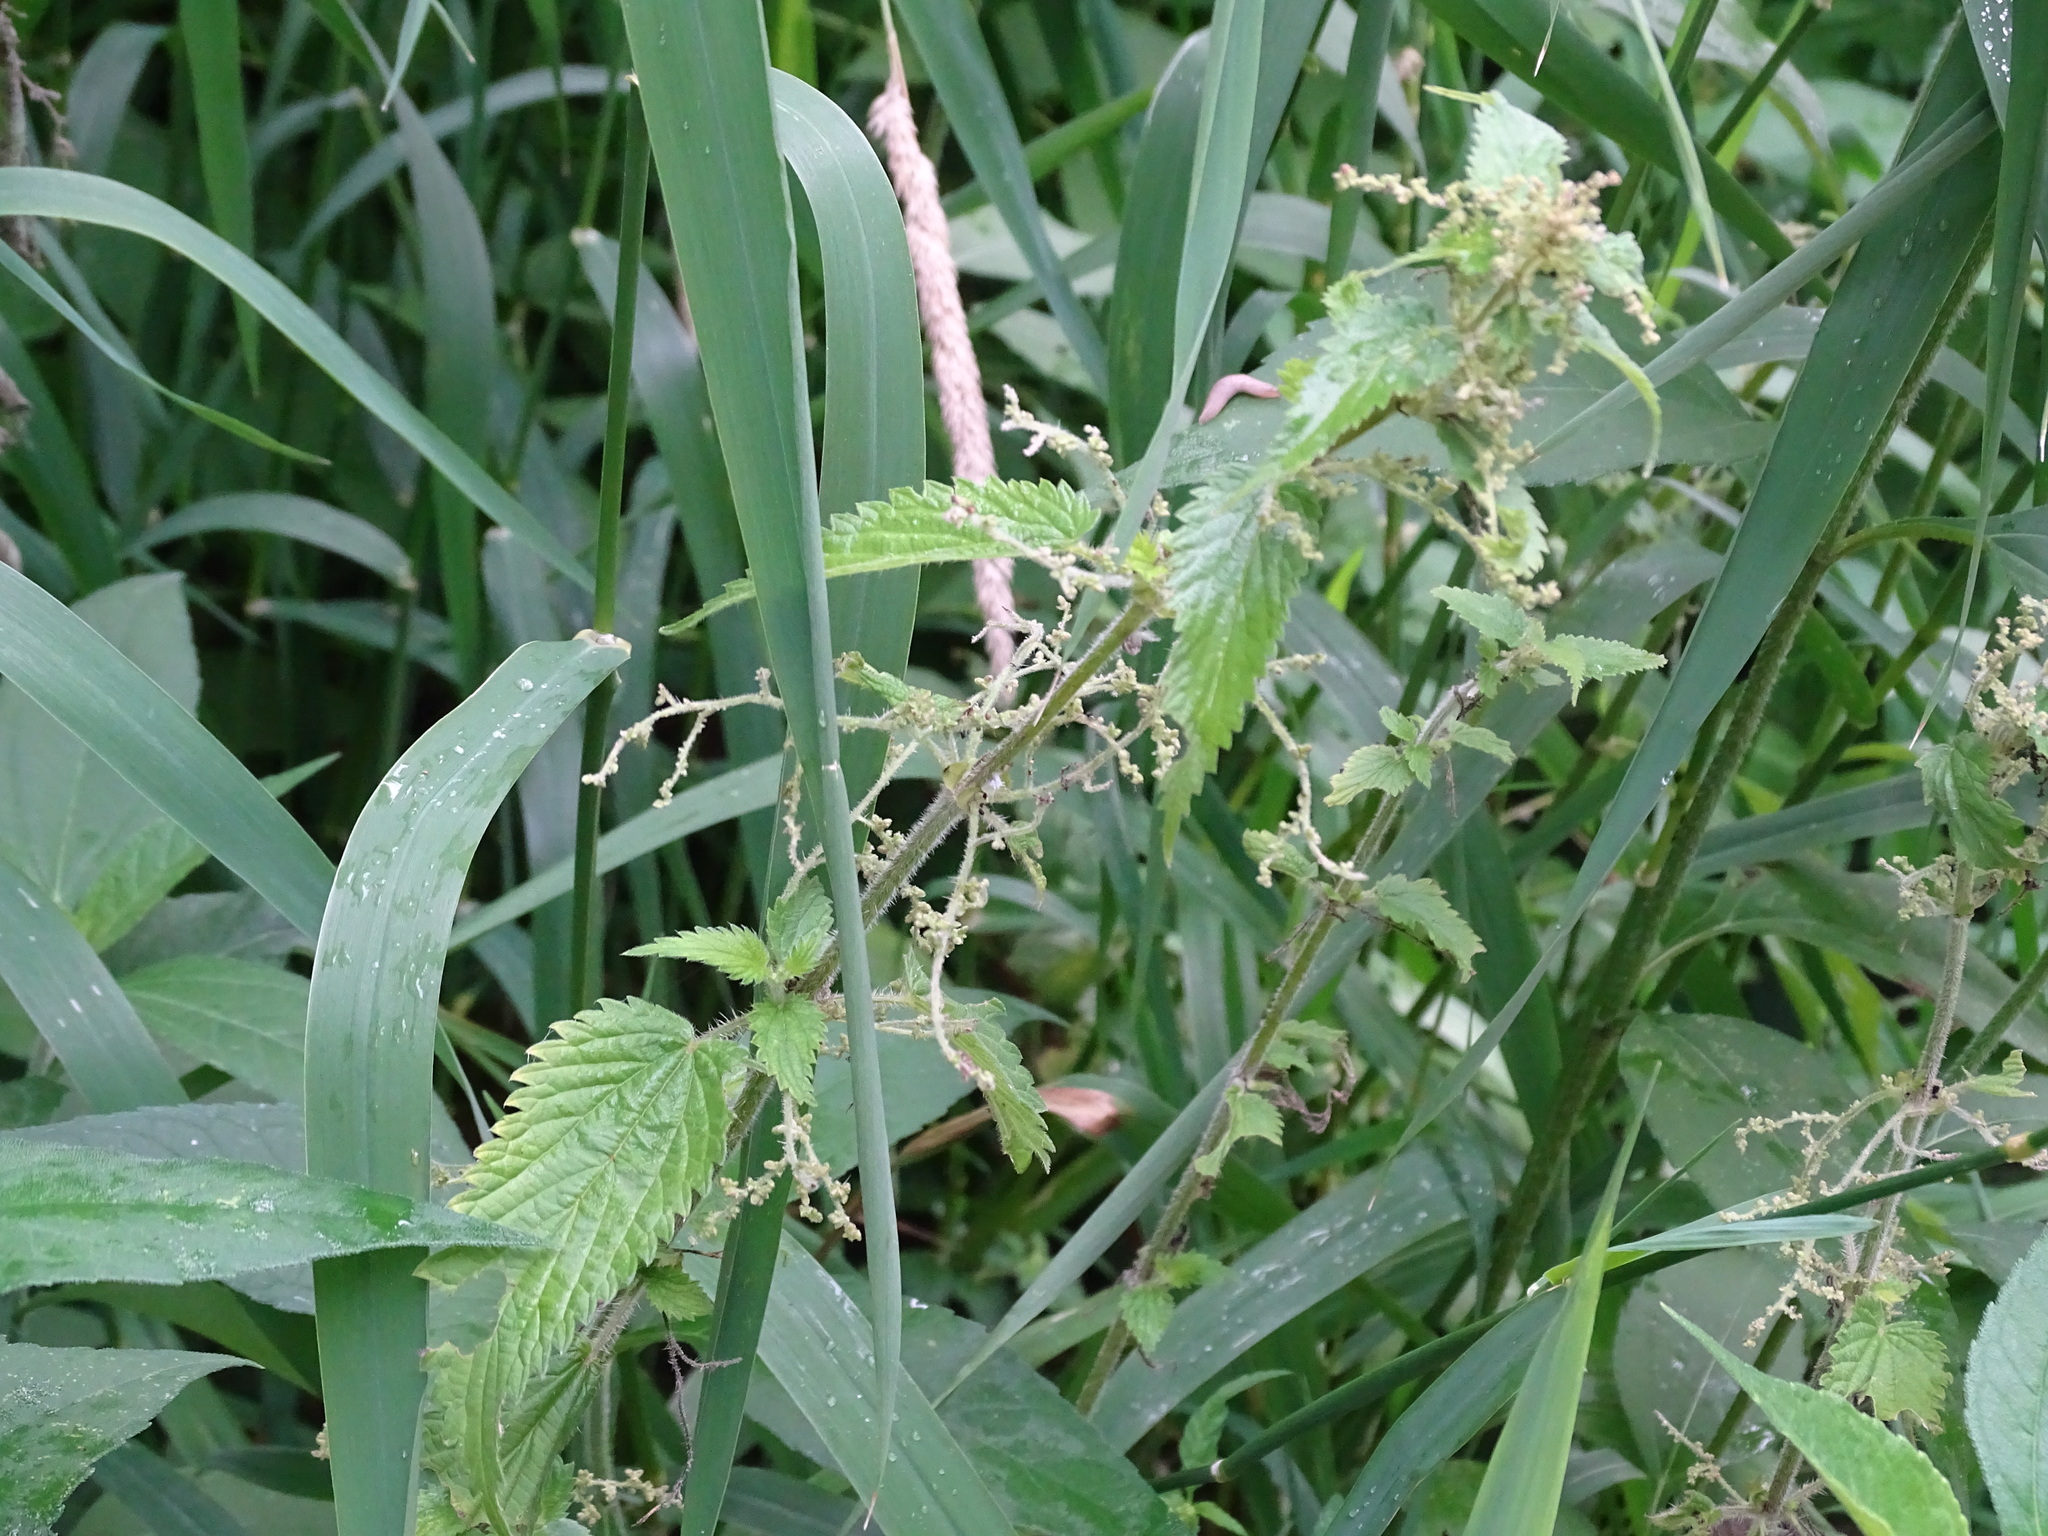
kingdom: Plantae
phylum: Tracheophyta
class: Magnoliopsida
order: Rosales
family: Urticaceae
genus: Urtica
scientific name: Urtica dioica
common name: Common nettle
